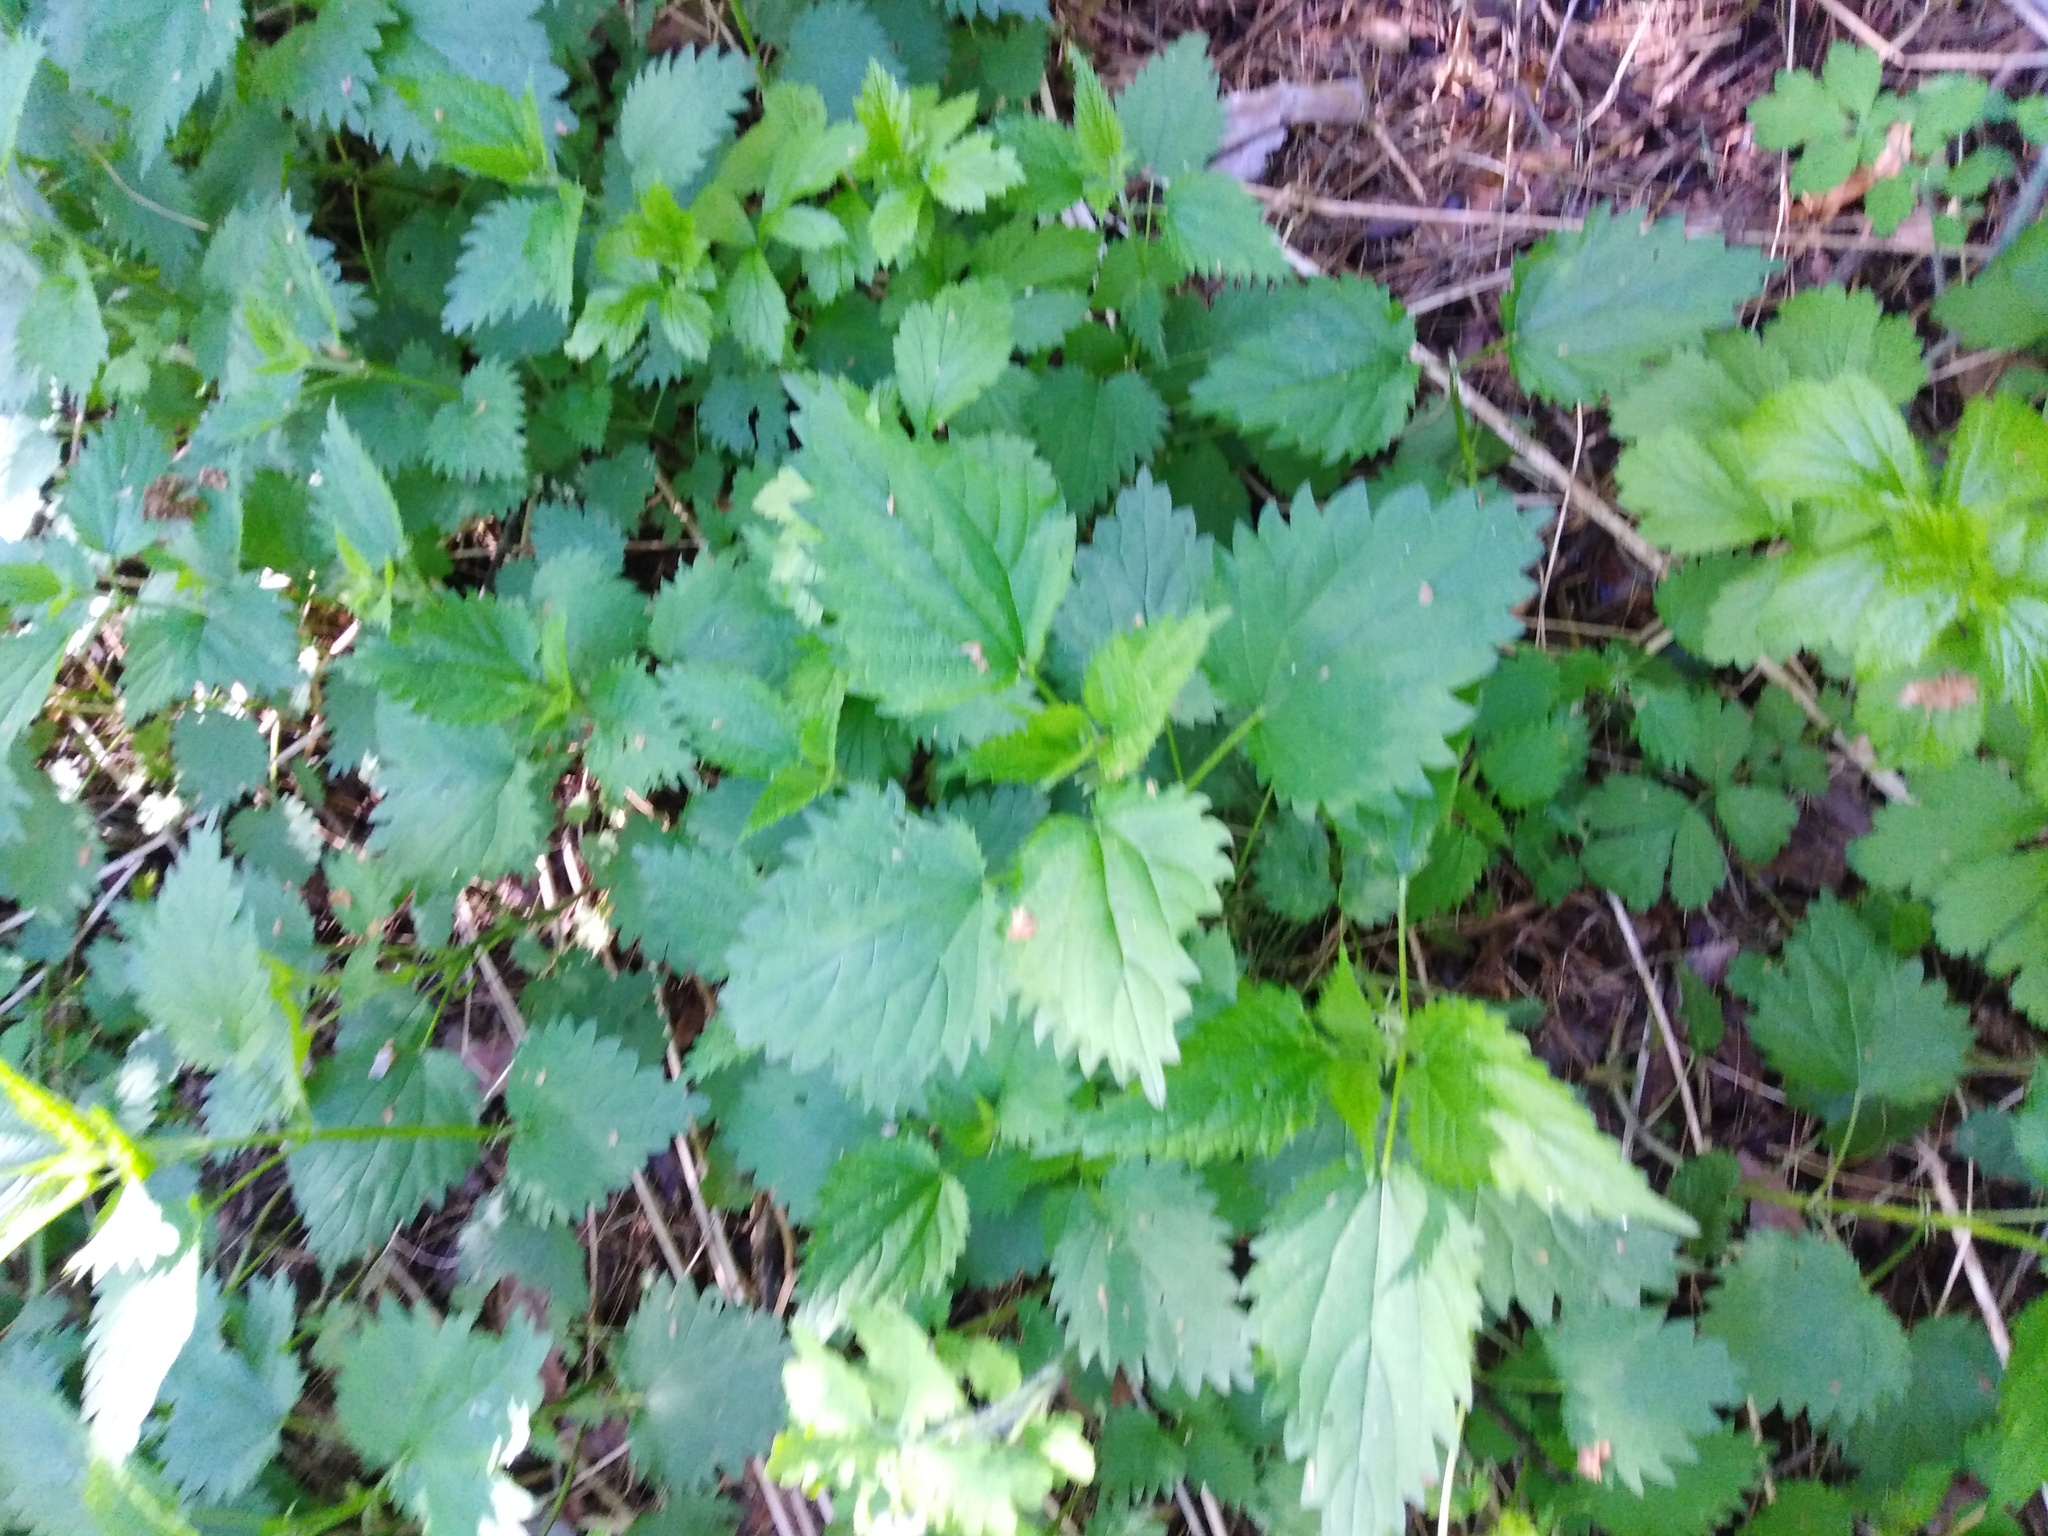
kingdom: Plantae
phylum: Tracheophyta
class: Magnoliopsida
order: Rosales
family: Urticaceae
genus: Urtica
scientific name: Urtica dioica
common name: Common nettle
